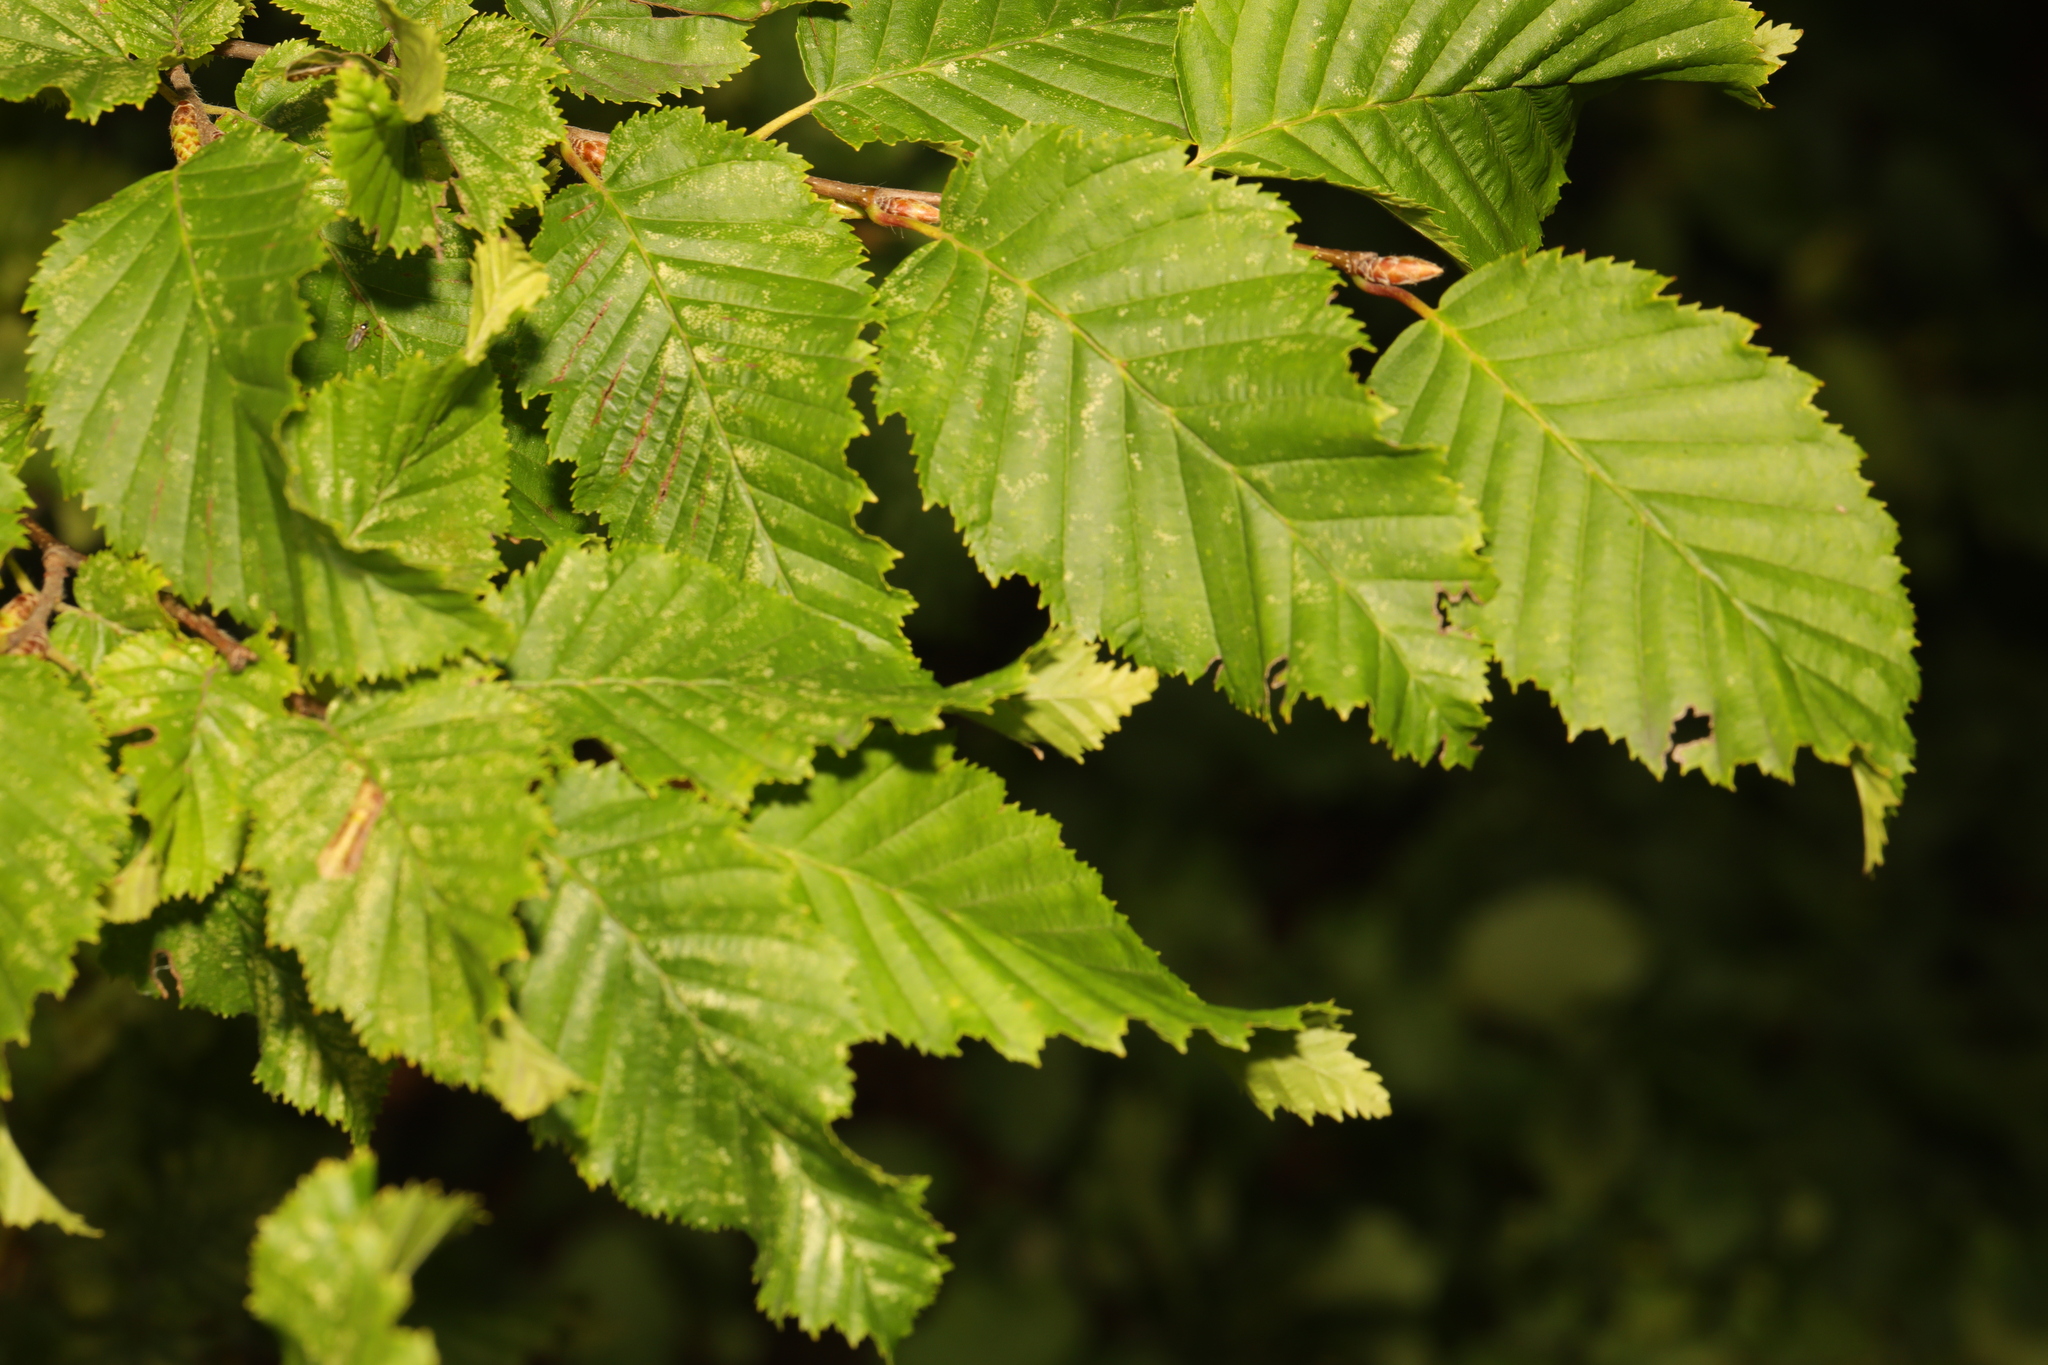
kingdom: Plantae
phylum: Tracheophyta
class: Magnoliopsida
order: Fagales
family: Betulaceae
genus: Carpinus
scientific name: Carpinus betulus
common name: Hornbeam
